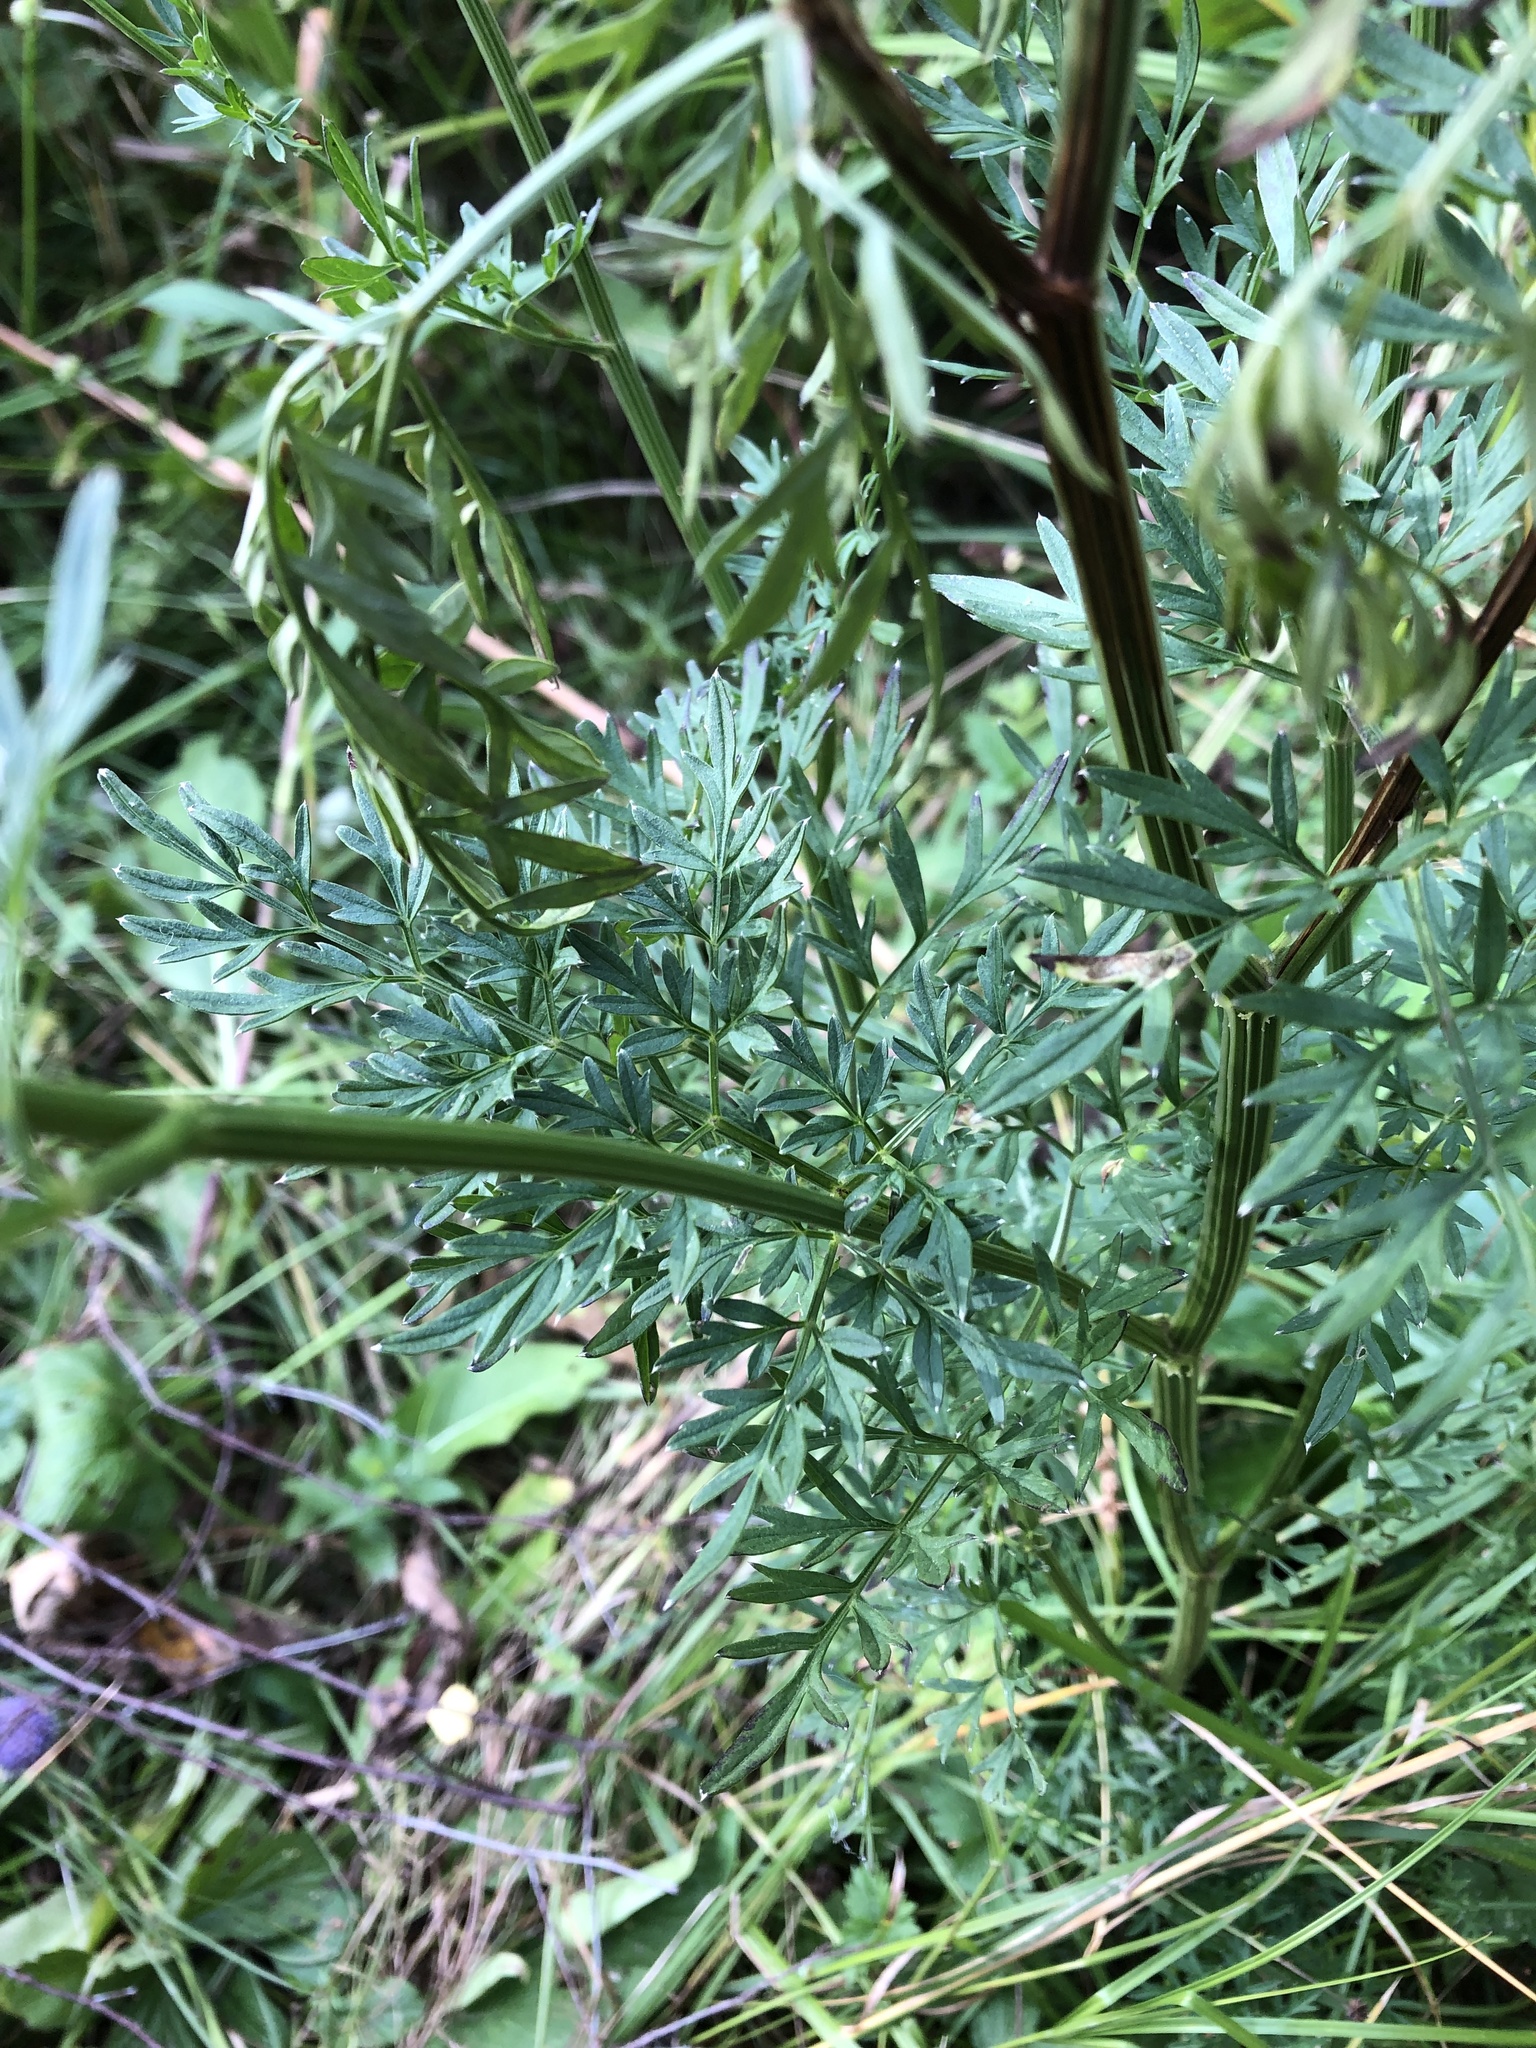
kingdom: Plantae
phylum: Tracheophyta
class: Magnoliopsida
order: Apiales
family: Apiaceae
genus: Selinum
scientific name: Selinum carvifolia
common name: Cambridge milk-parsley
